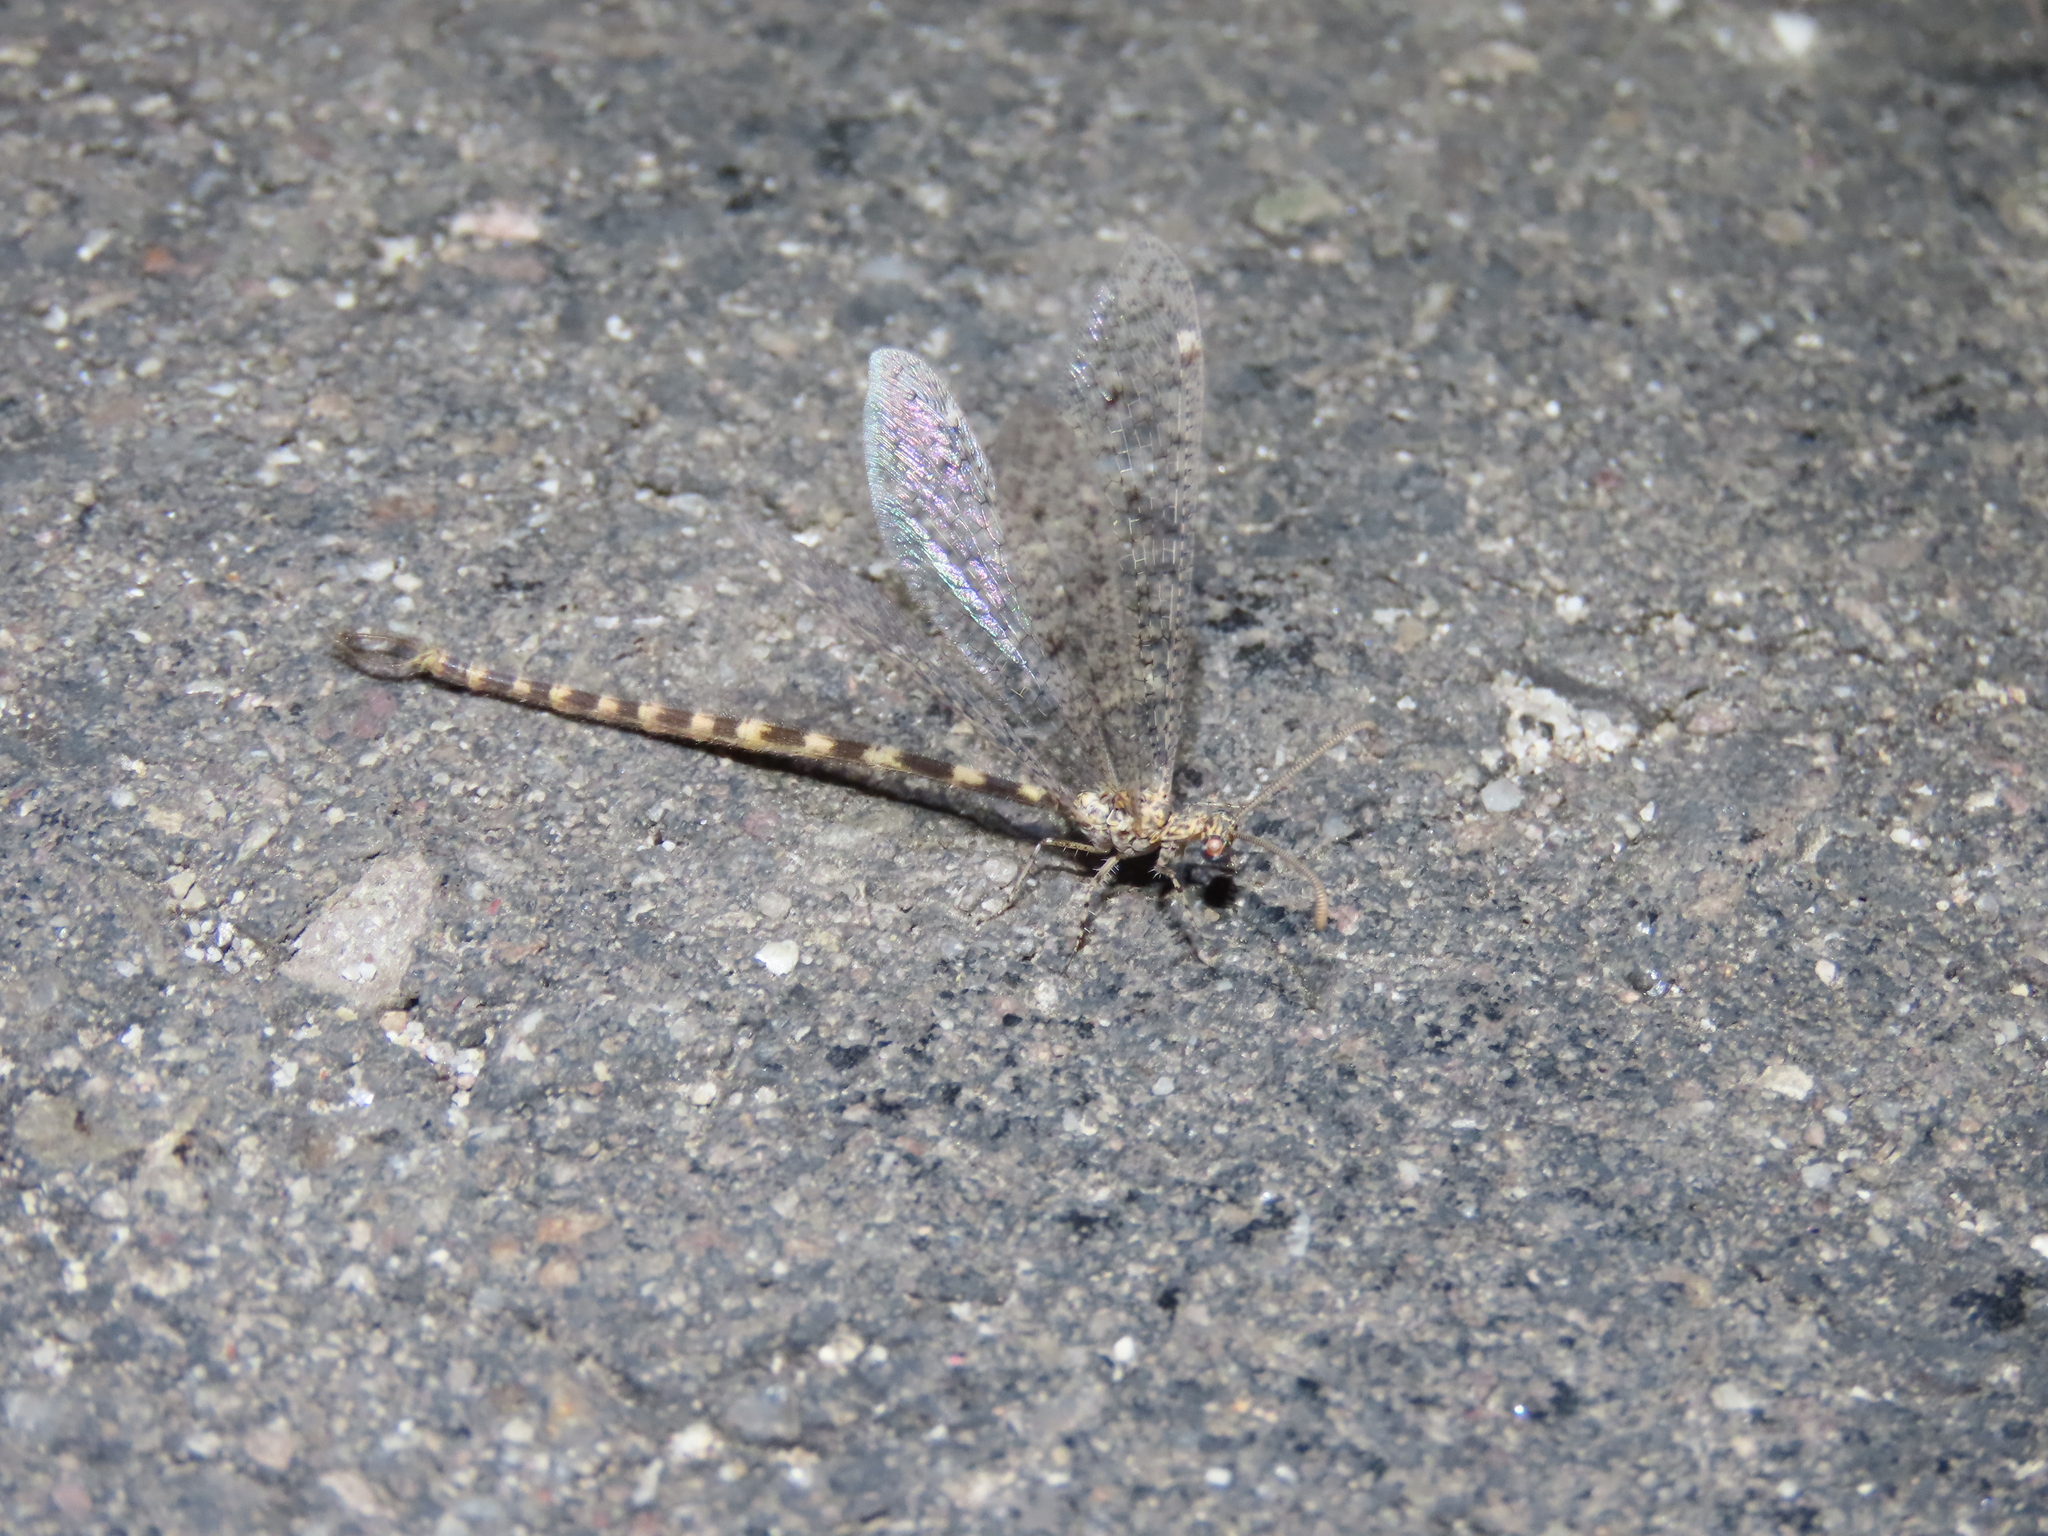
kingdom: Animalia
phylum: Arthropoda
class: Insecta
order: Neuroptera
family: Myrmeleontidae
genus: Brachynemurus
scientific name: Brachynemurus sackeni
